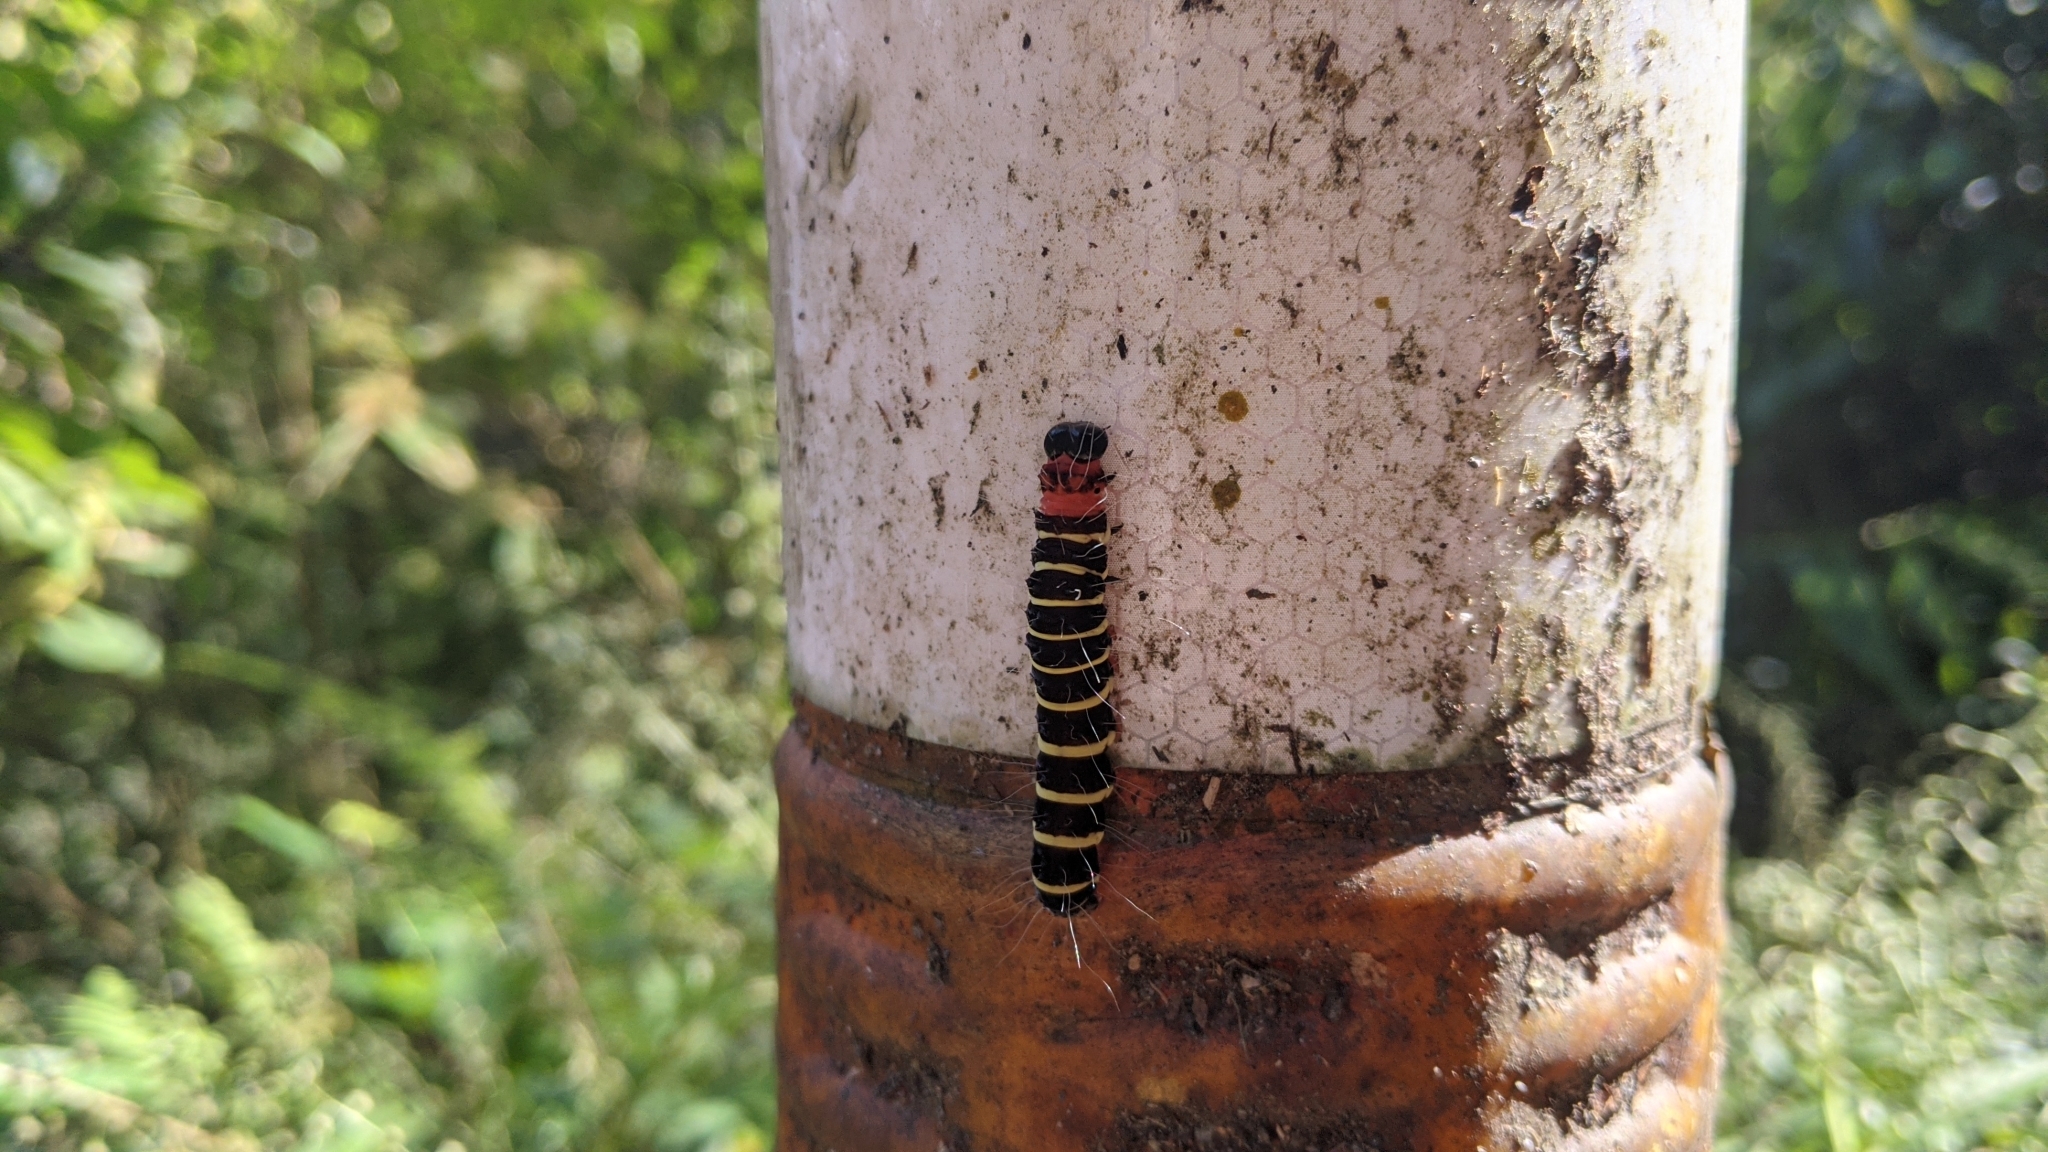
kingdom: Animalia
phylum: Arthropoda
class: Insecta
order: Lepidoptera
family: Erebidae
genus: Asota
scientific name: Asota plana
